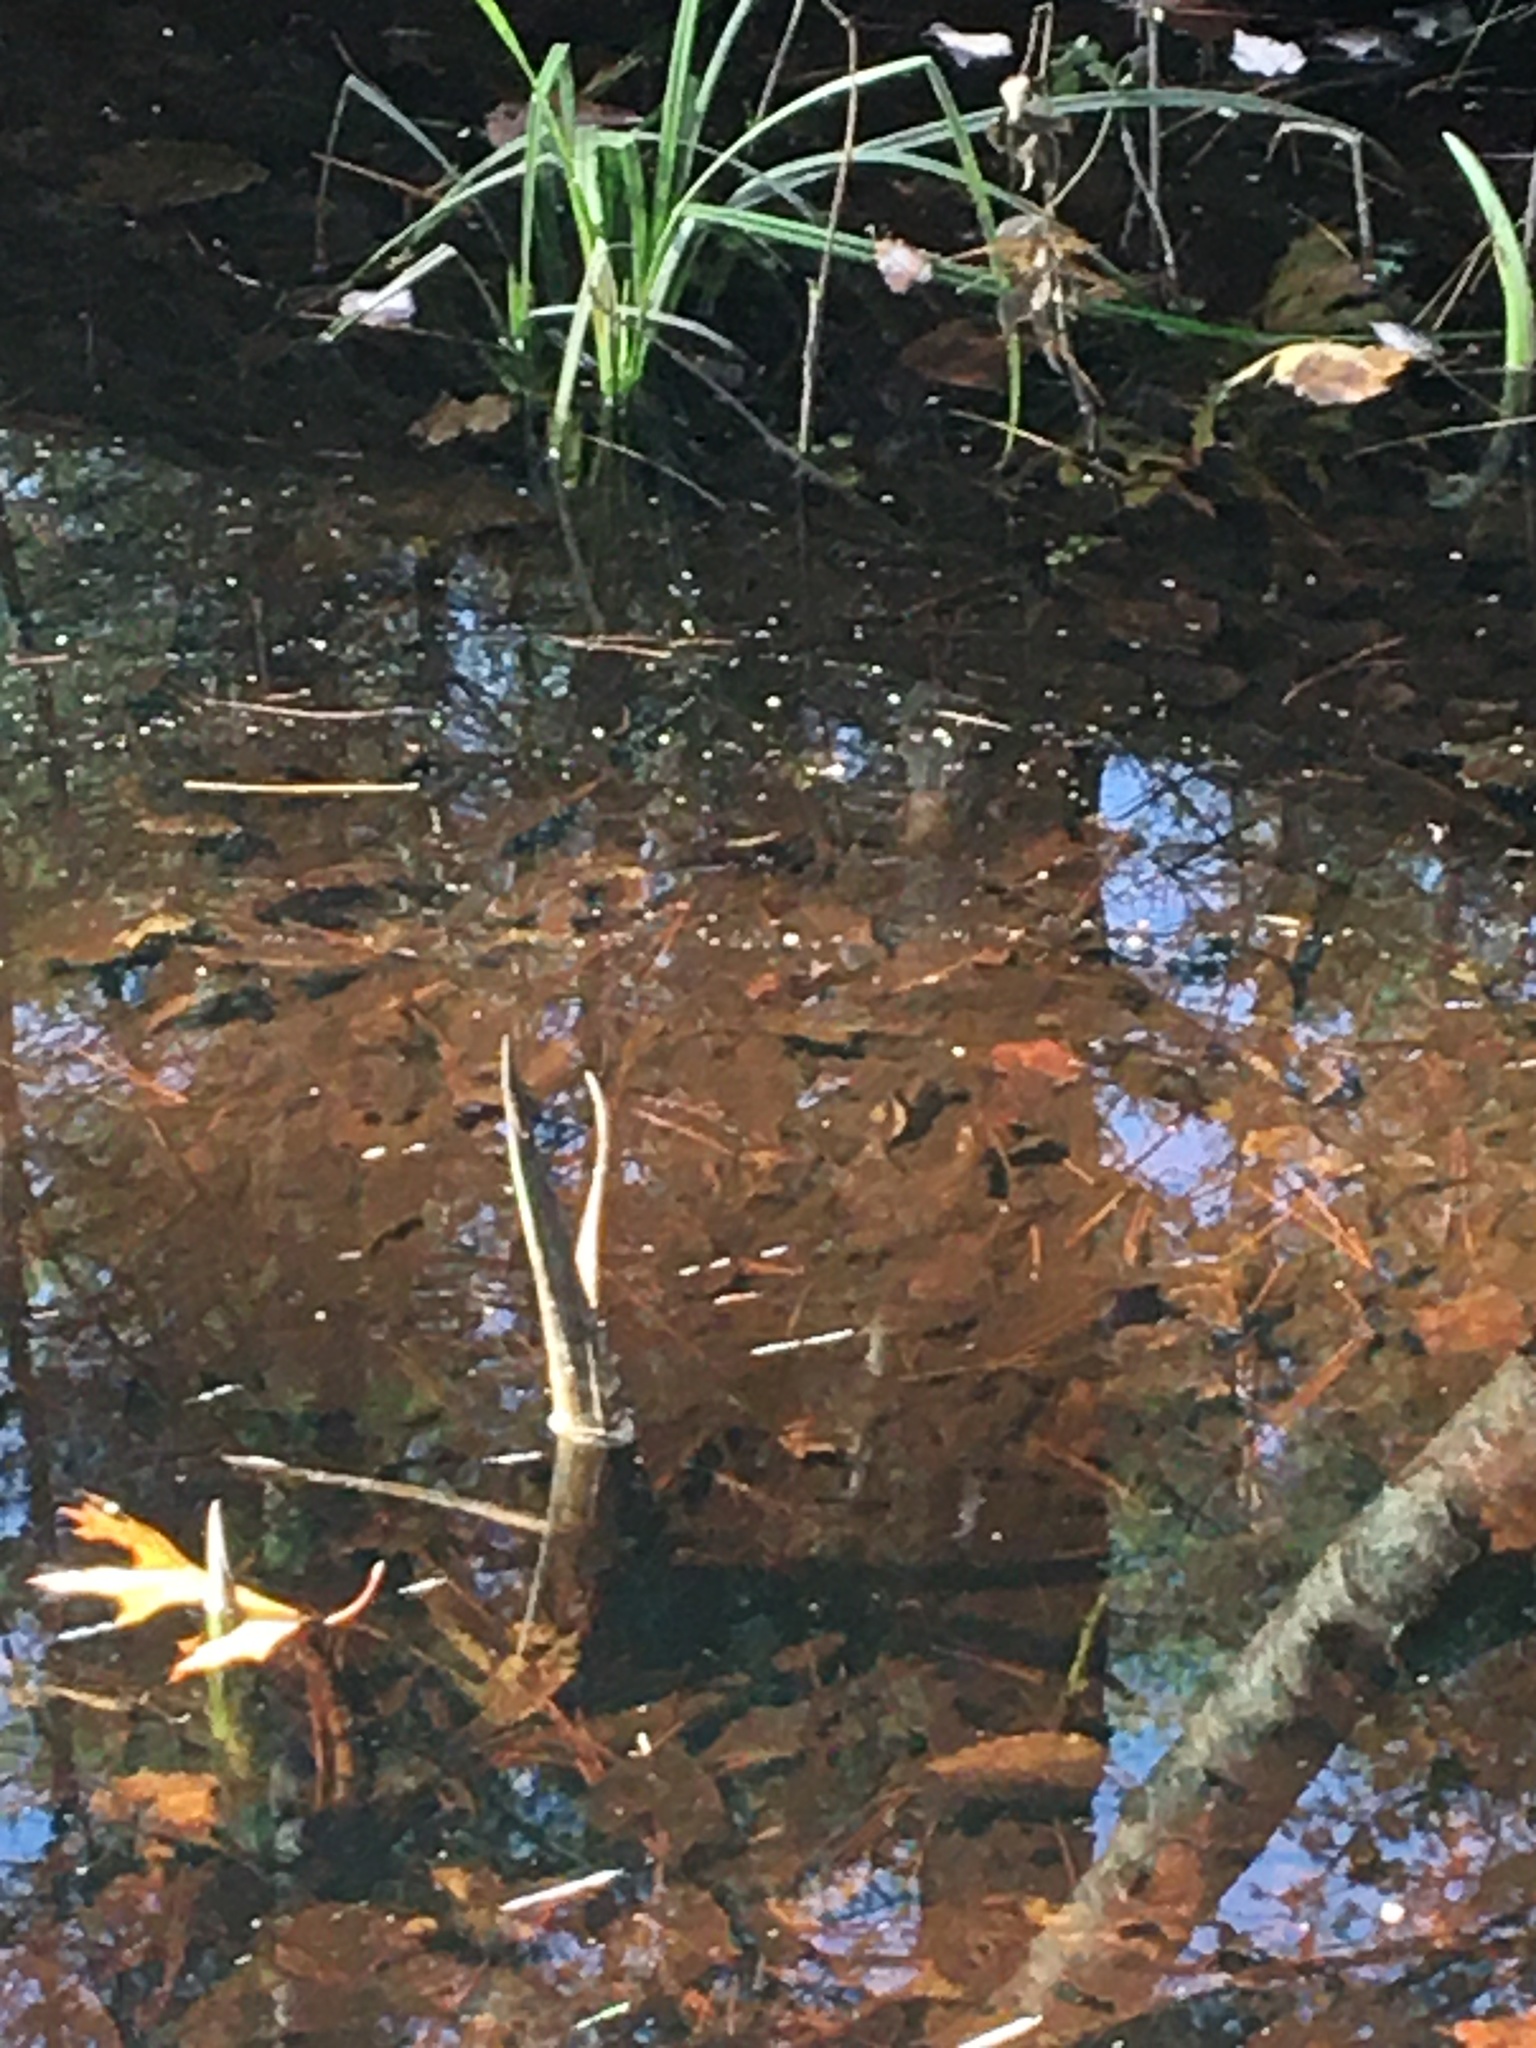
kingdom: Plantae
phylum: Tracheophyta
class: Liliopsida
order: Alismatales
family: Araceae
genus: Symplocarpus
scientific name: Symplocarpus foetidus
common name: Eastern skunk cabbage
